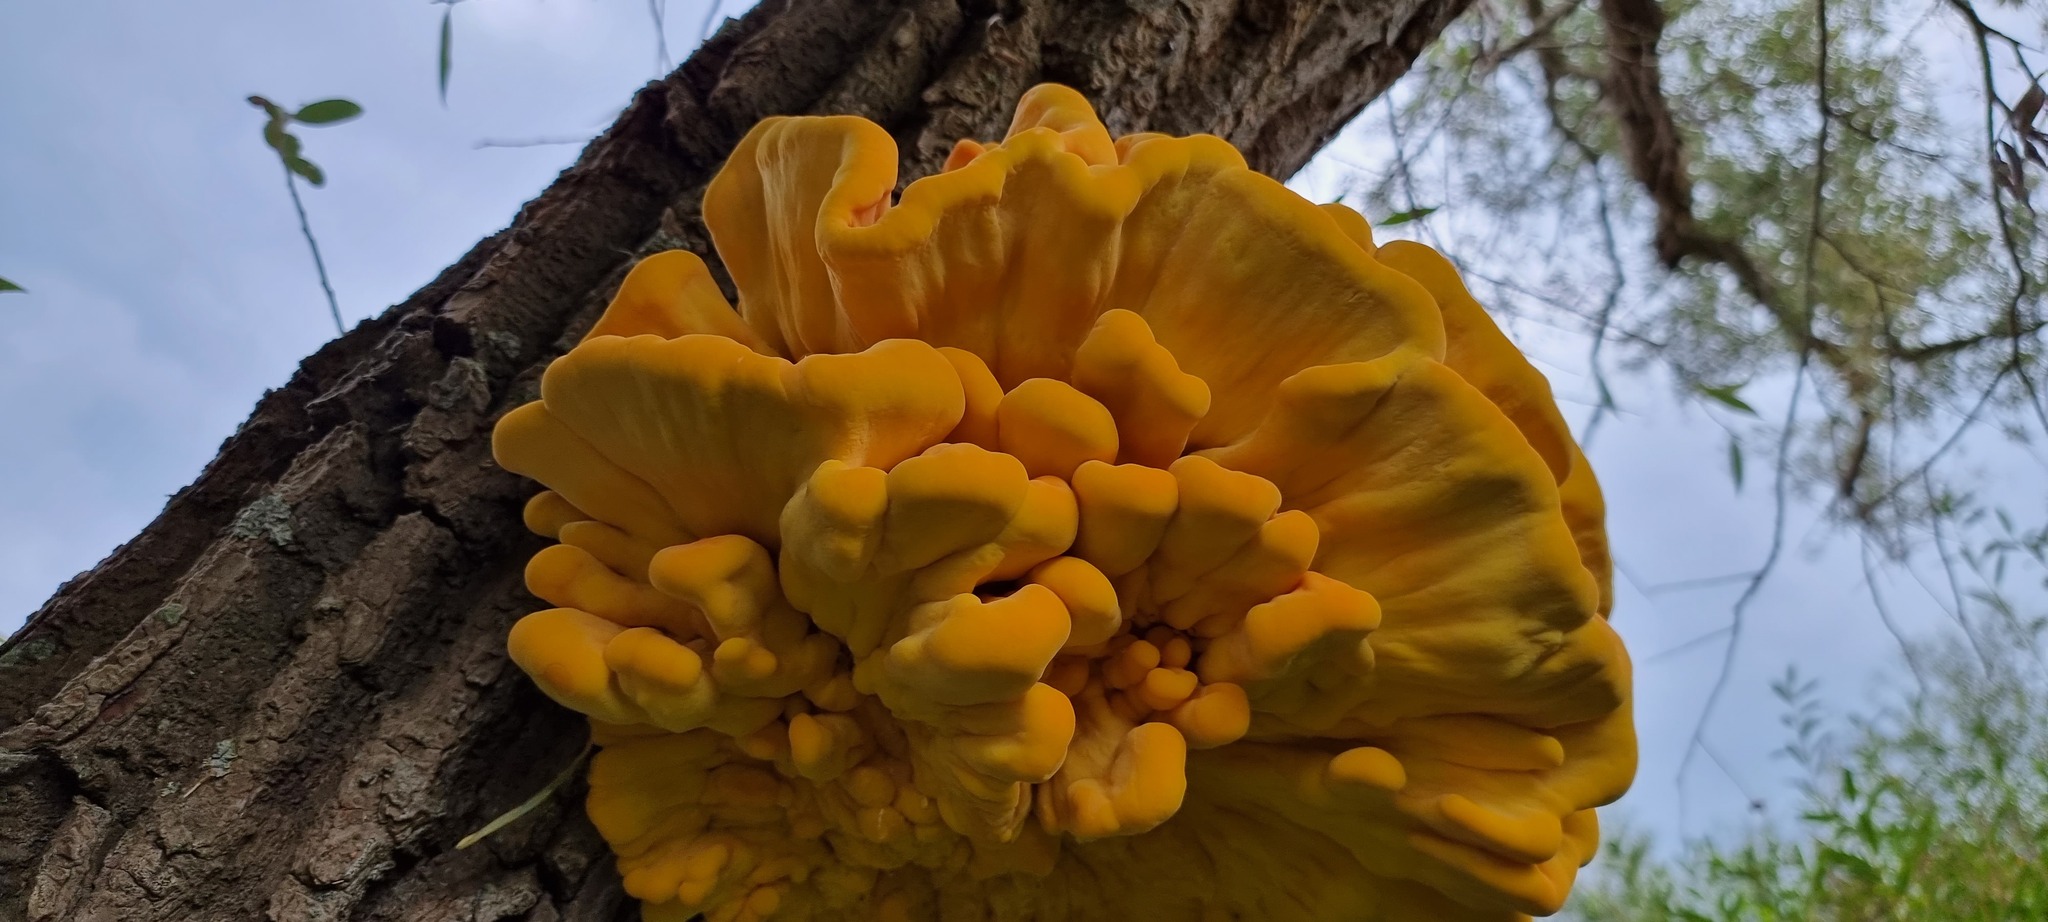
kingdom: Fungi
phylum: Basidiomycota
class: Agaricomycetes
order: Polyporales
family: Laetiporaceae
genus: Laetiporus
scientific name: Laetiporus sulphureus
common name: Chicken of the woods
